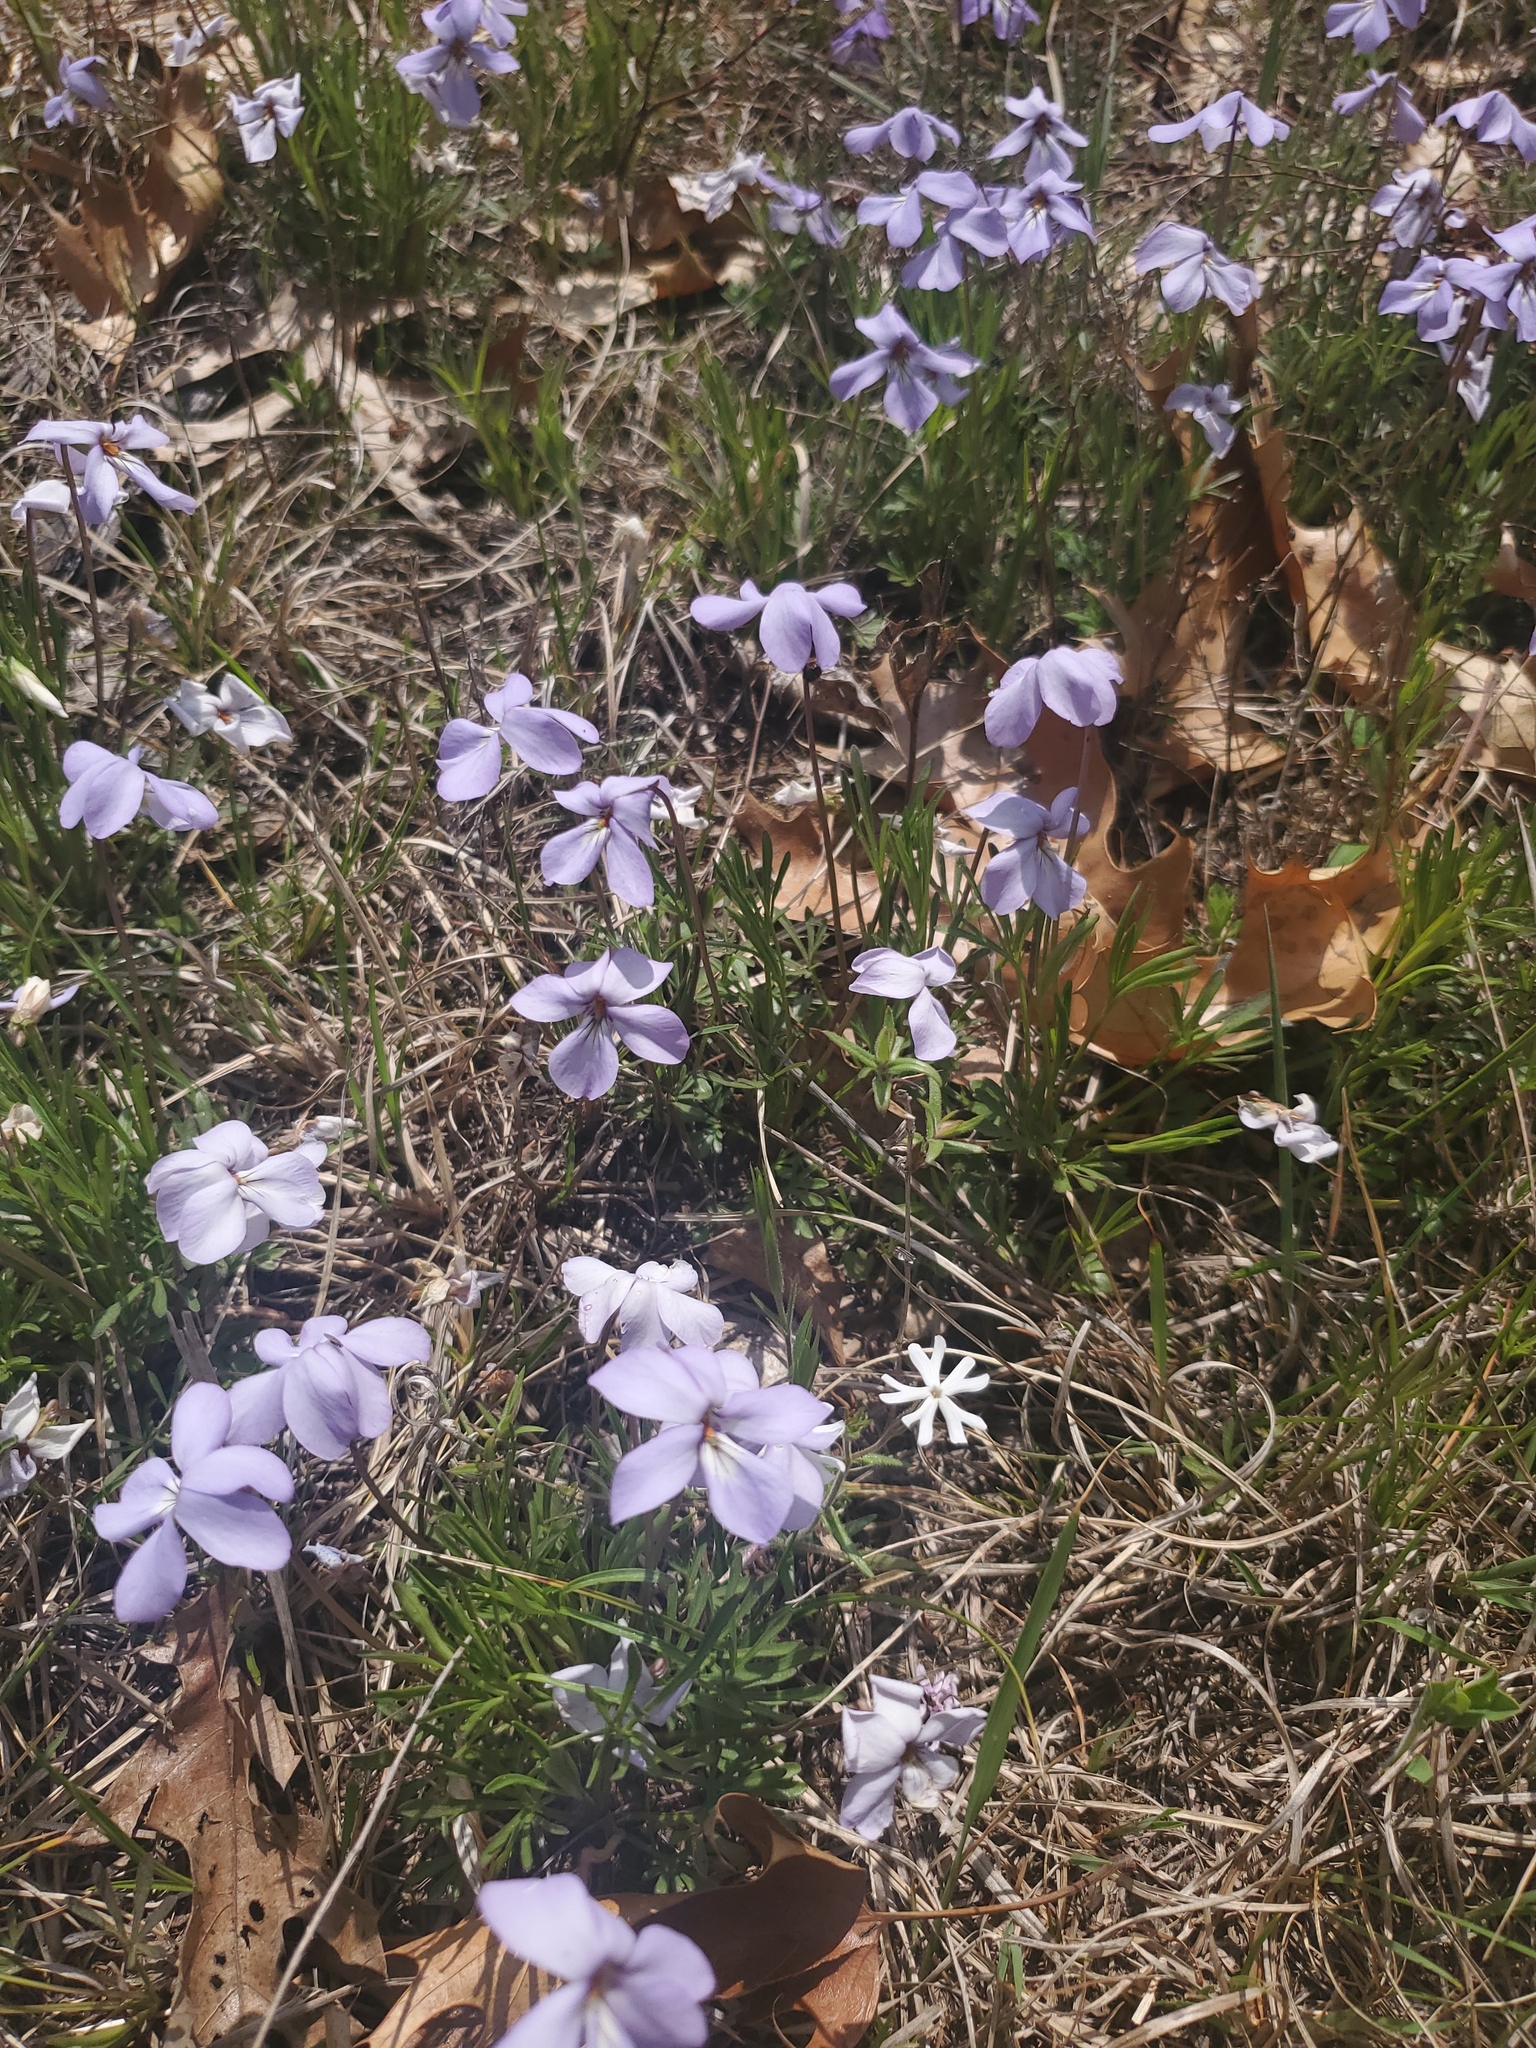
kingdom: Plantae
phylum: Tracheophyta
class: Magnoliopsida
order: Malpighiales
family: Violaceae
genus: Viola
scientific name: Viola pedata
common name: Pansy violet
